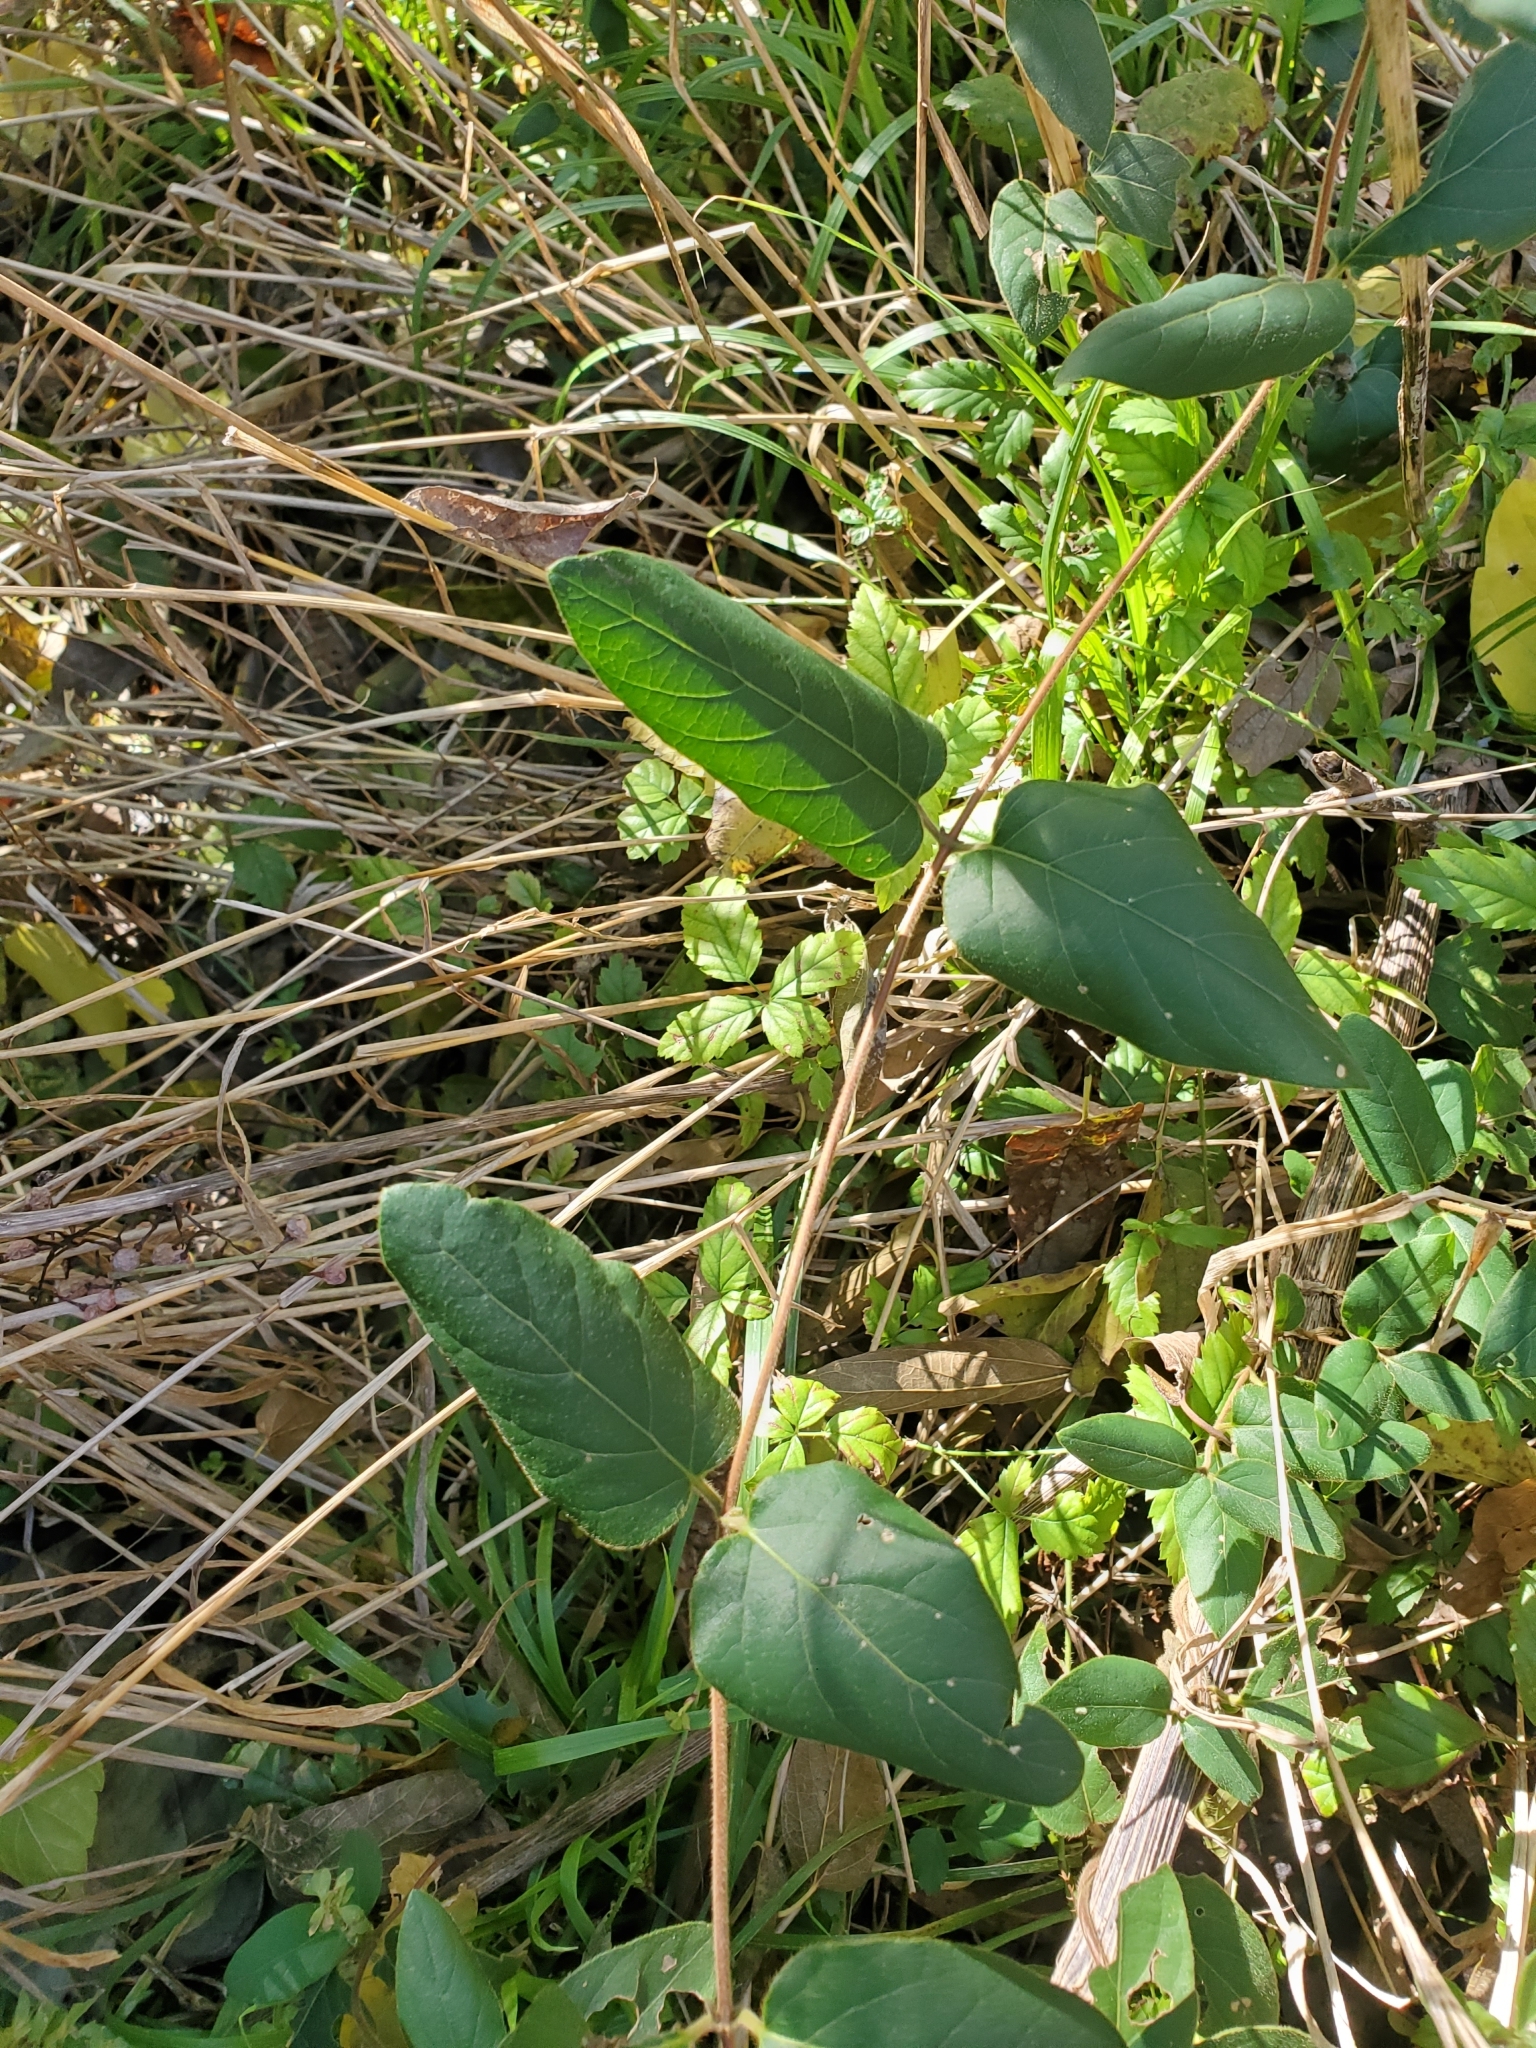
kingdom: Plantae
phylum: Tracheophyta
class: Magnoliopsida
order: Dipsacales
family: Caprifoliaceae
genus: Lonicera
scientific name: Lonicera japonica
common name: Japanese honeysuckle
